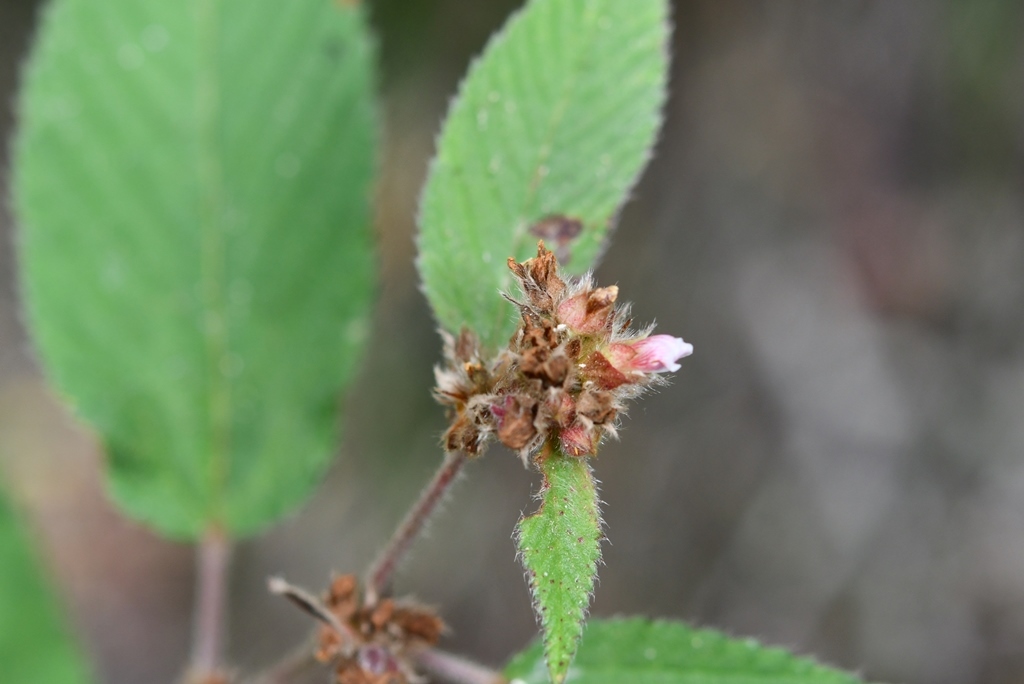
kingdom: Plantae
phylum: Tracheophyta
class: Magnoliopsida
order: Malvales
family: Malvaceae
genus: Melochia
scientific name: Melochia nodiflora
